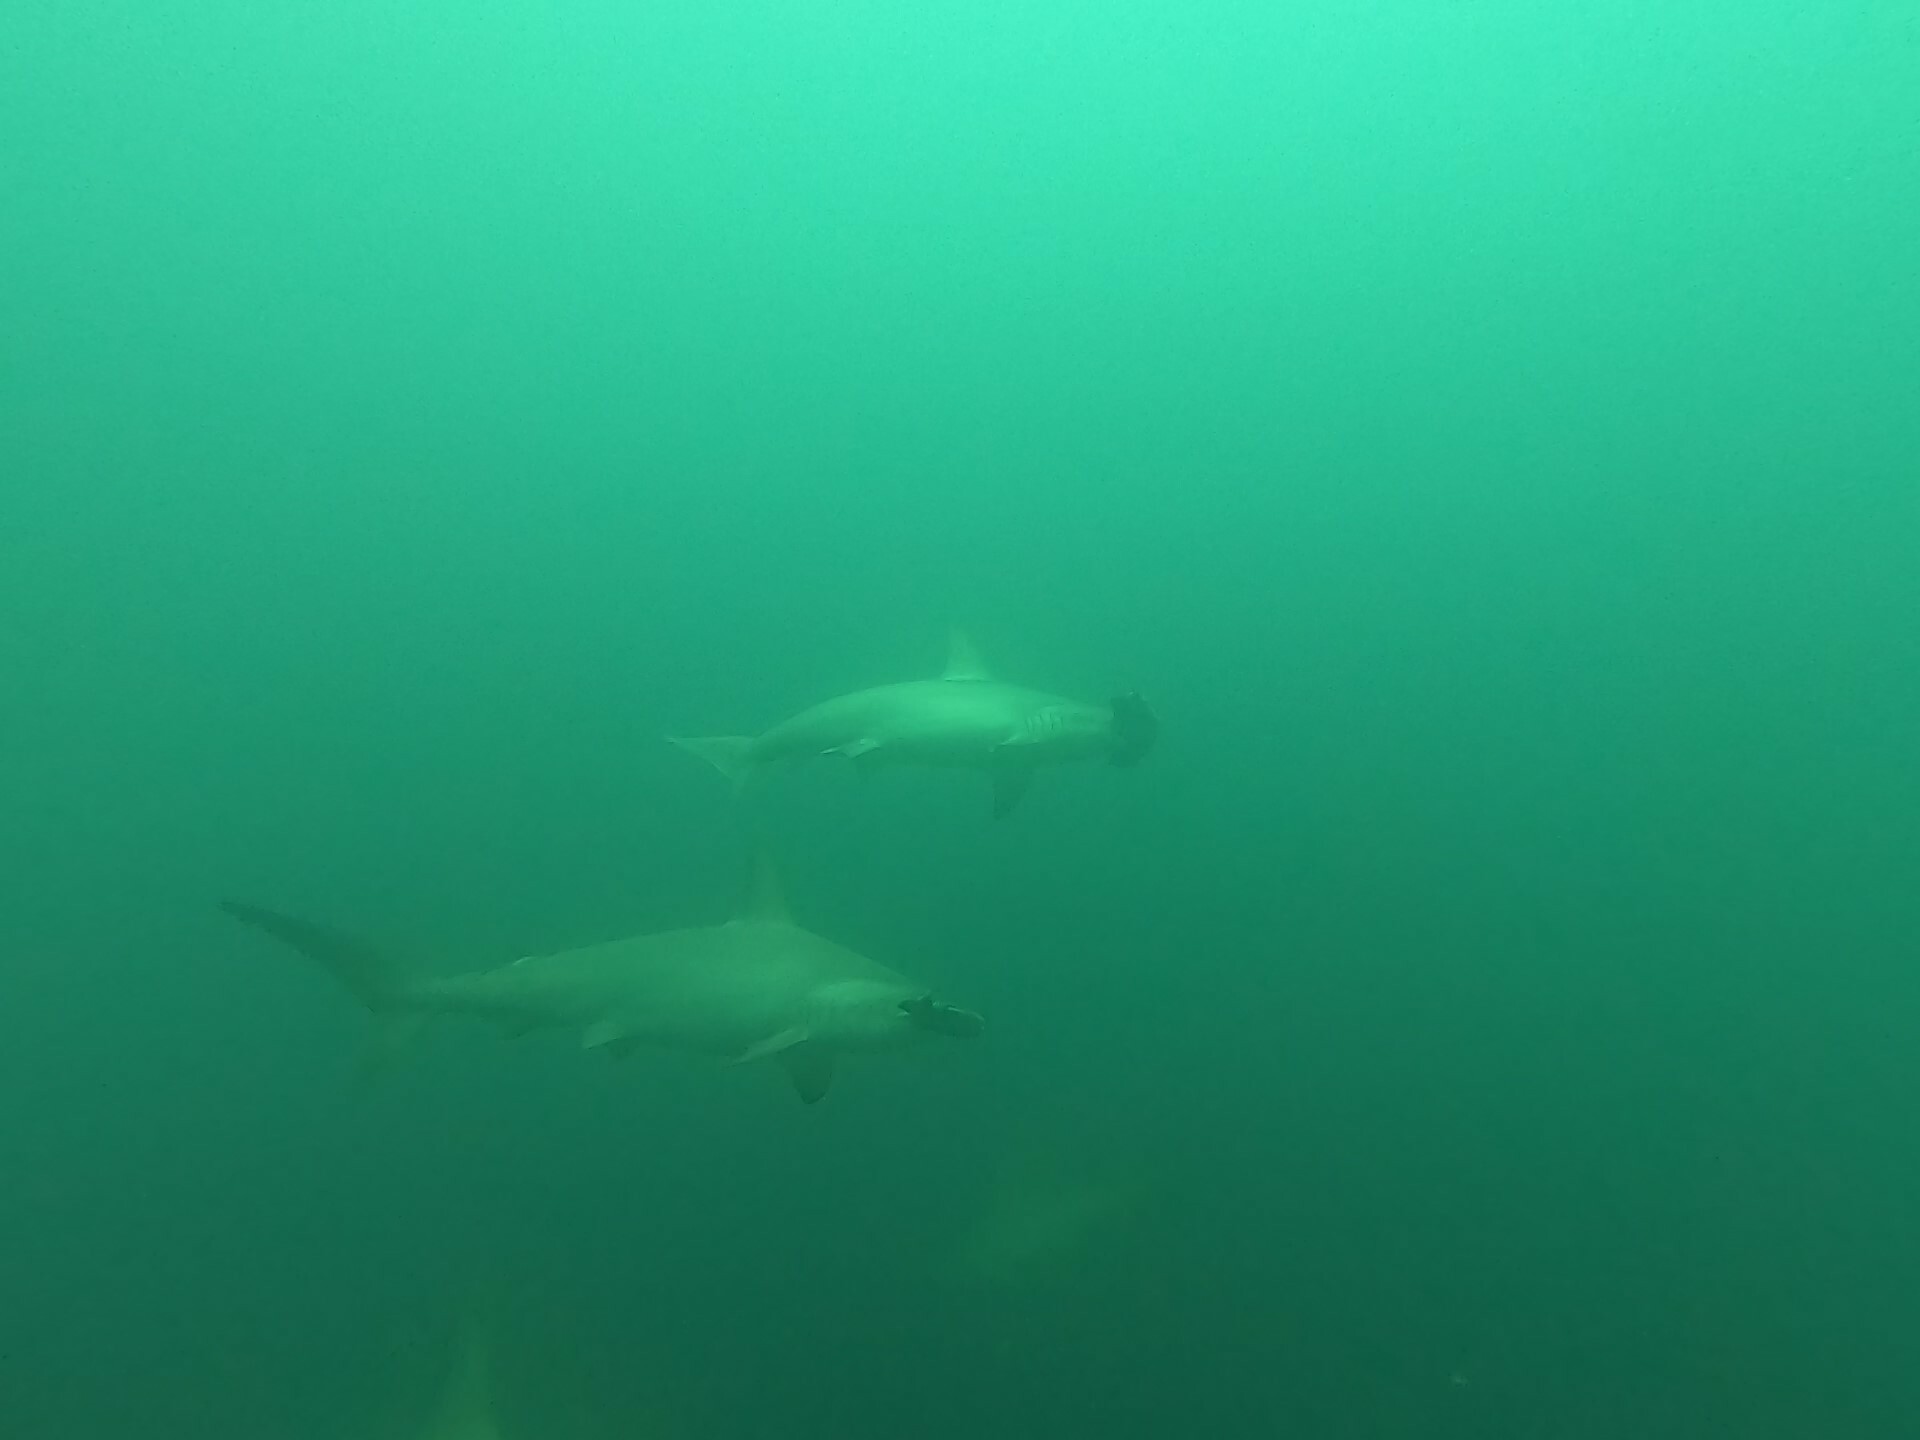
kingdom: Animalia
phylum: Chordata
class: Elasmobranchii
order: Carcharhiniformes
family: Sphyrnidae
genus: Sphyrna
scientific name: Sphyrna lewini
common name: Scalloped hammerhead
